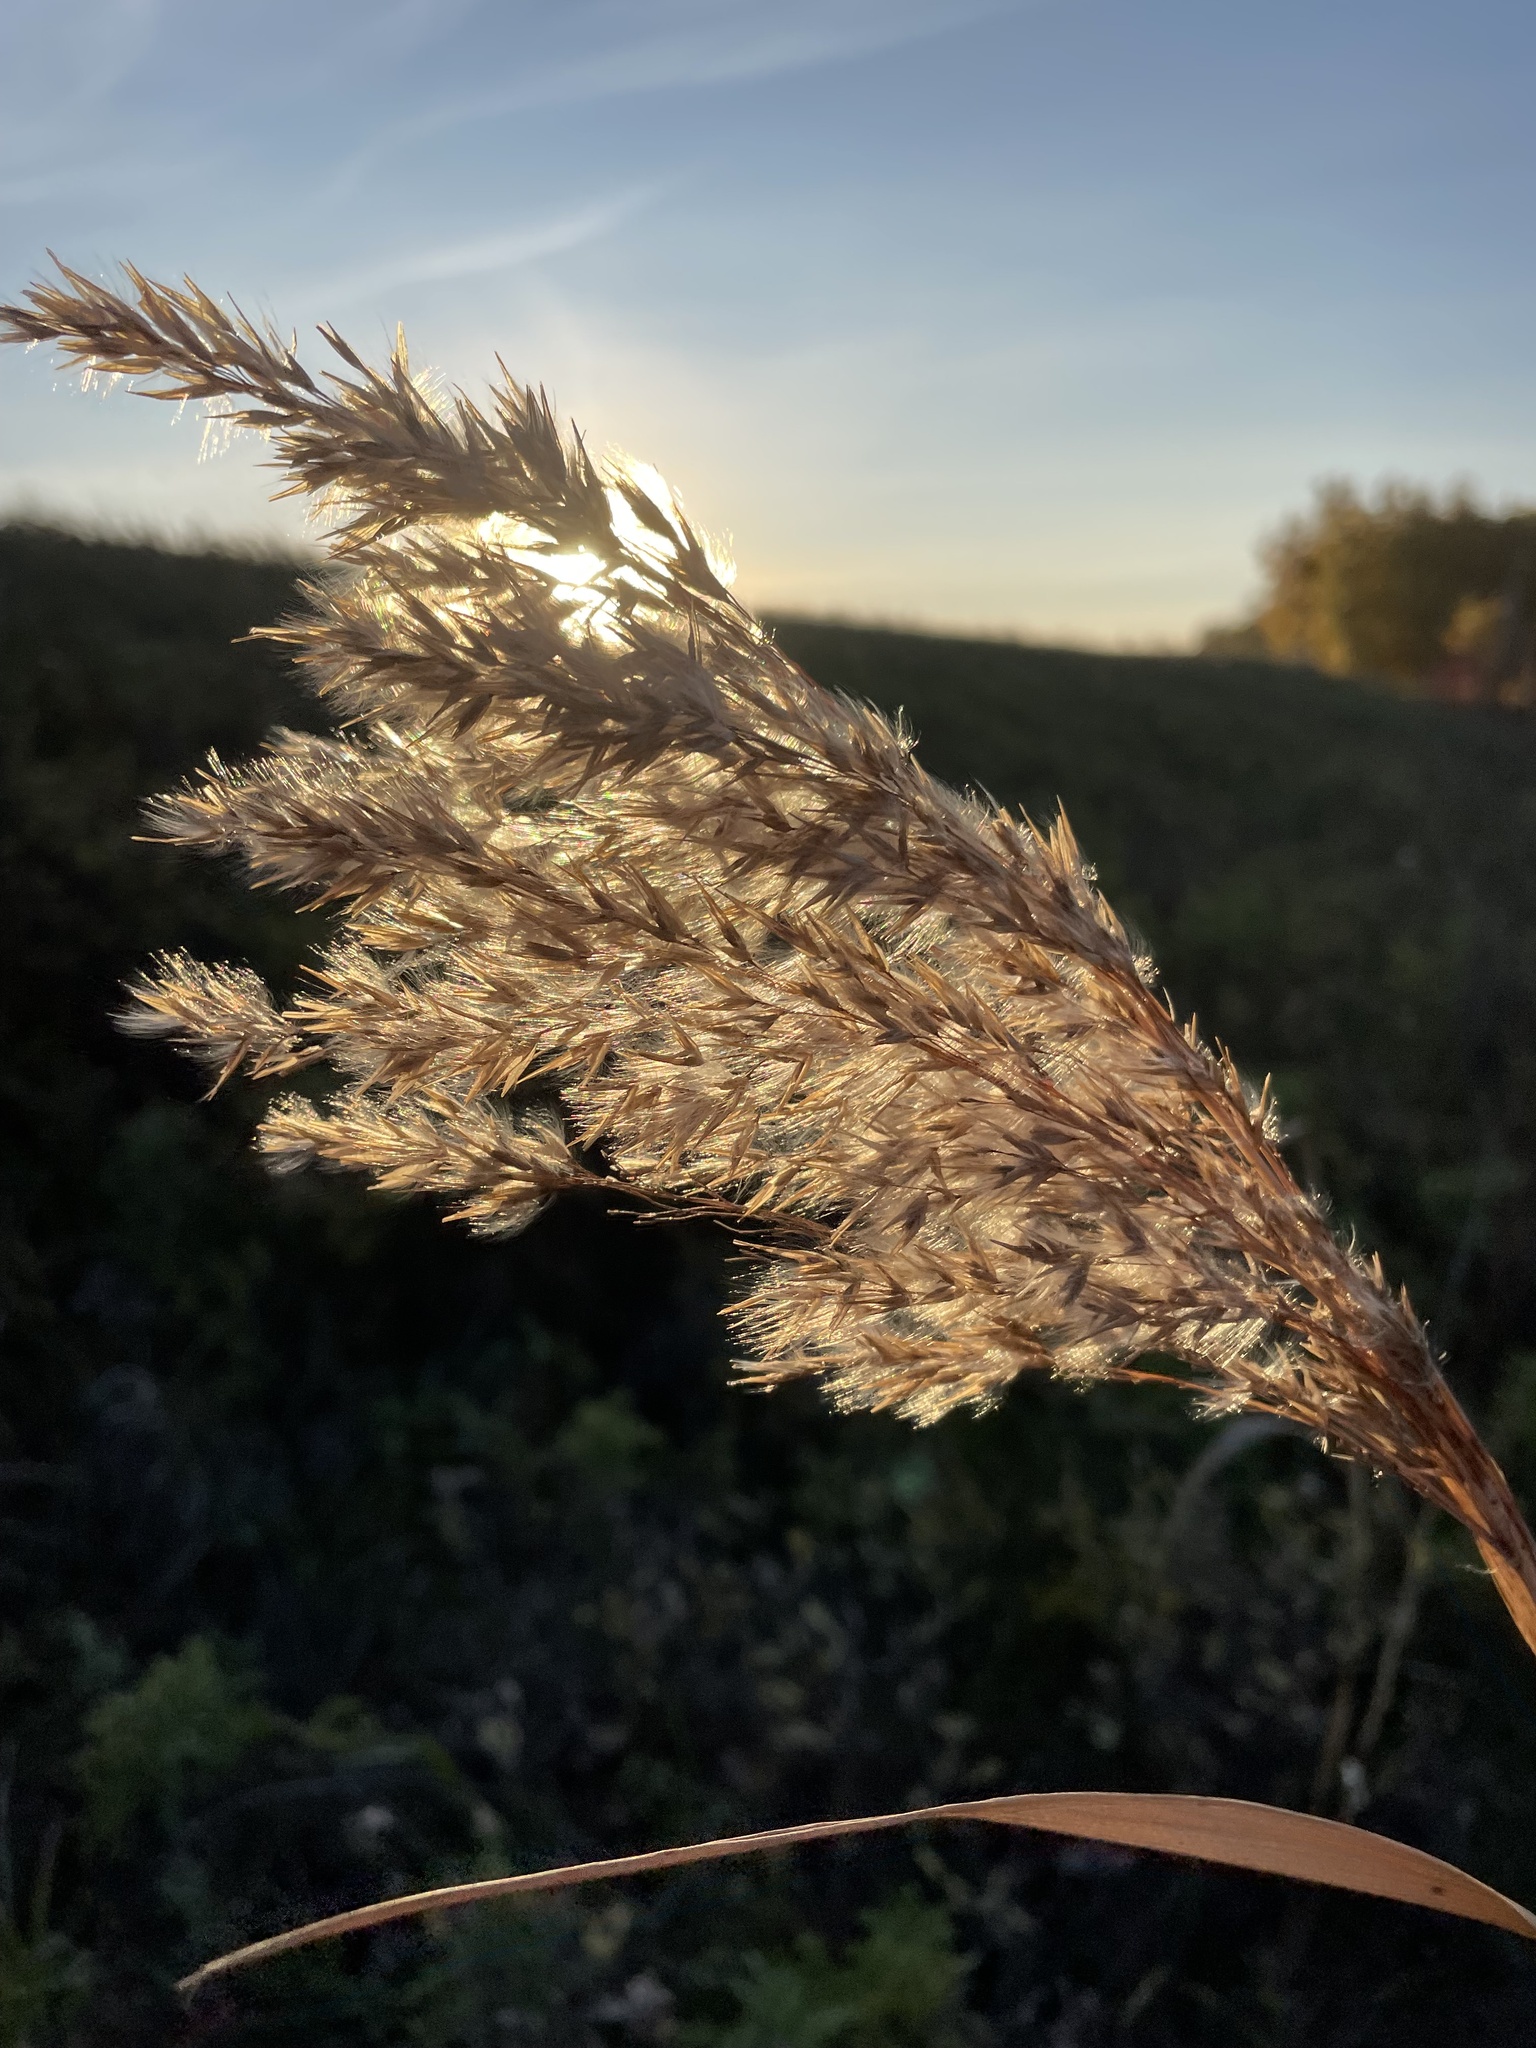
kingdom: Plantae
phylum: Tracheophyta
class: Liliopsida
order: Poales
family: Poaceae
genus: Phragmites
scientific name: Phragmites australis
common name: Common reed
